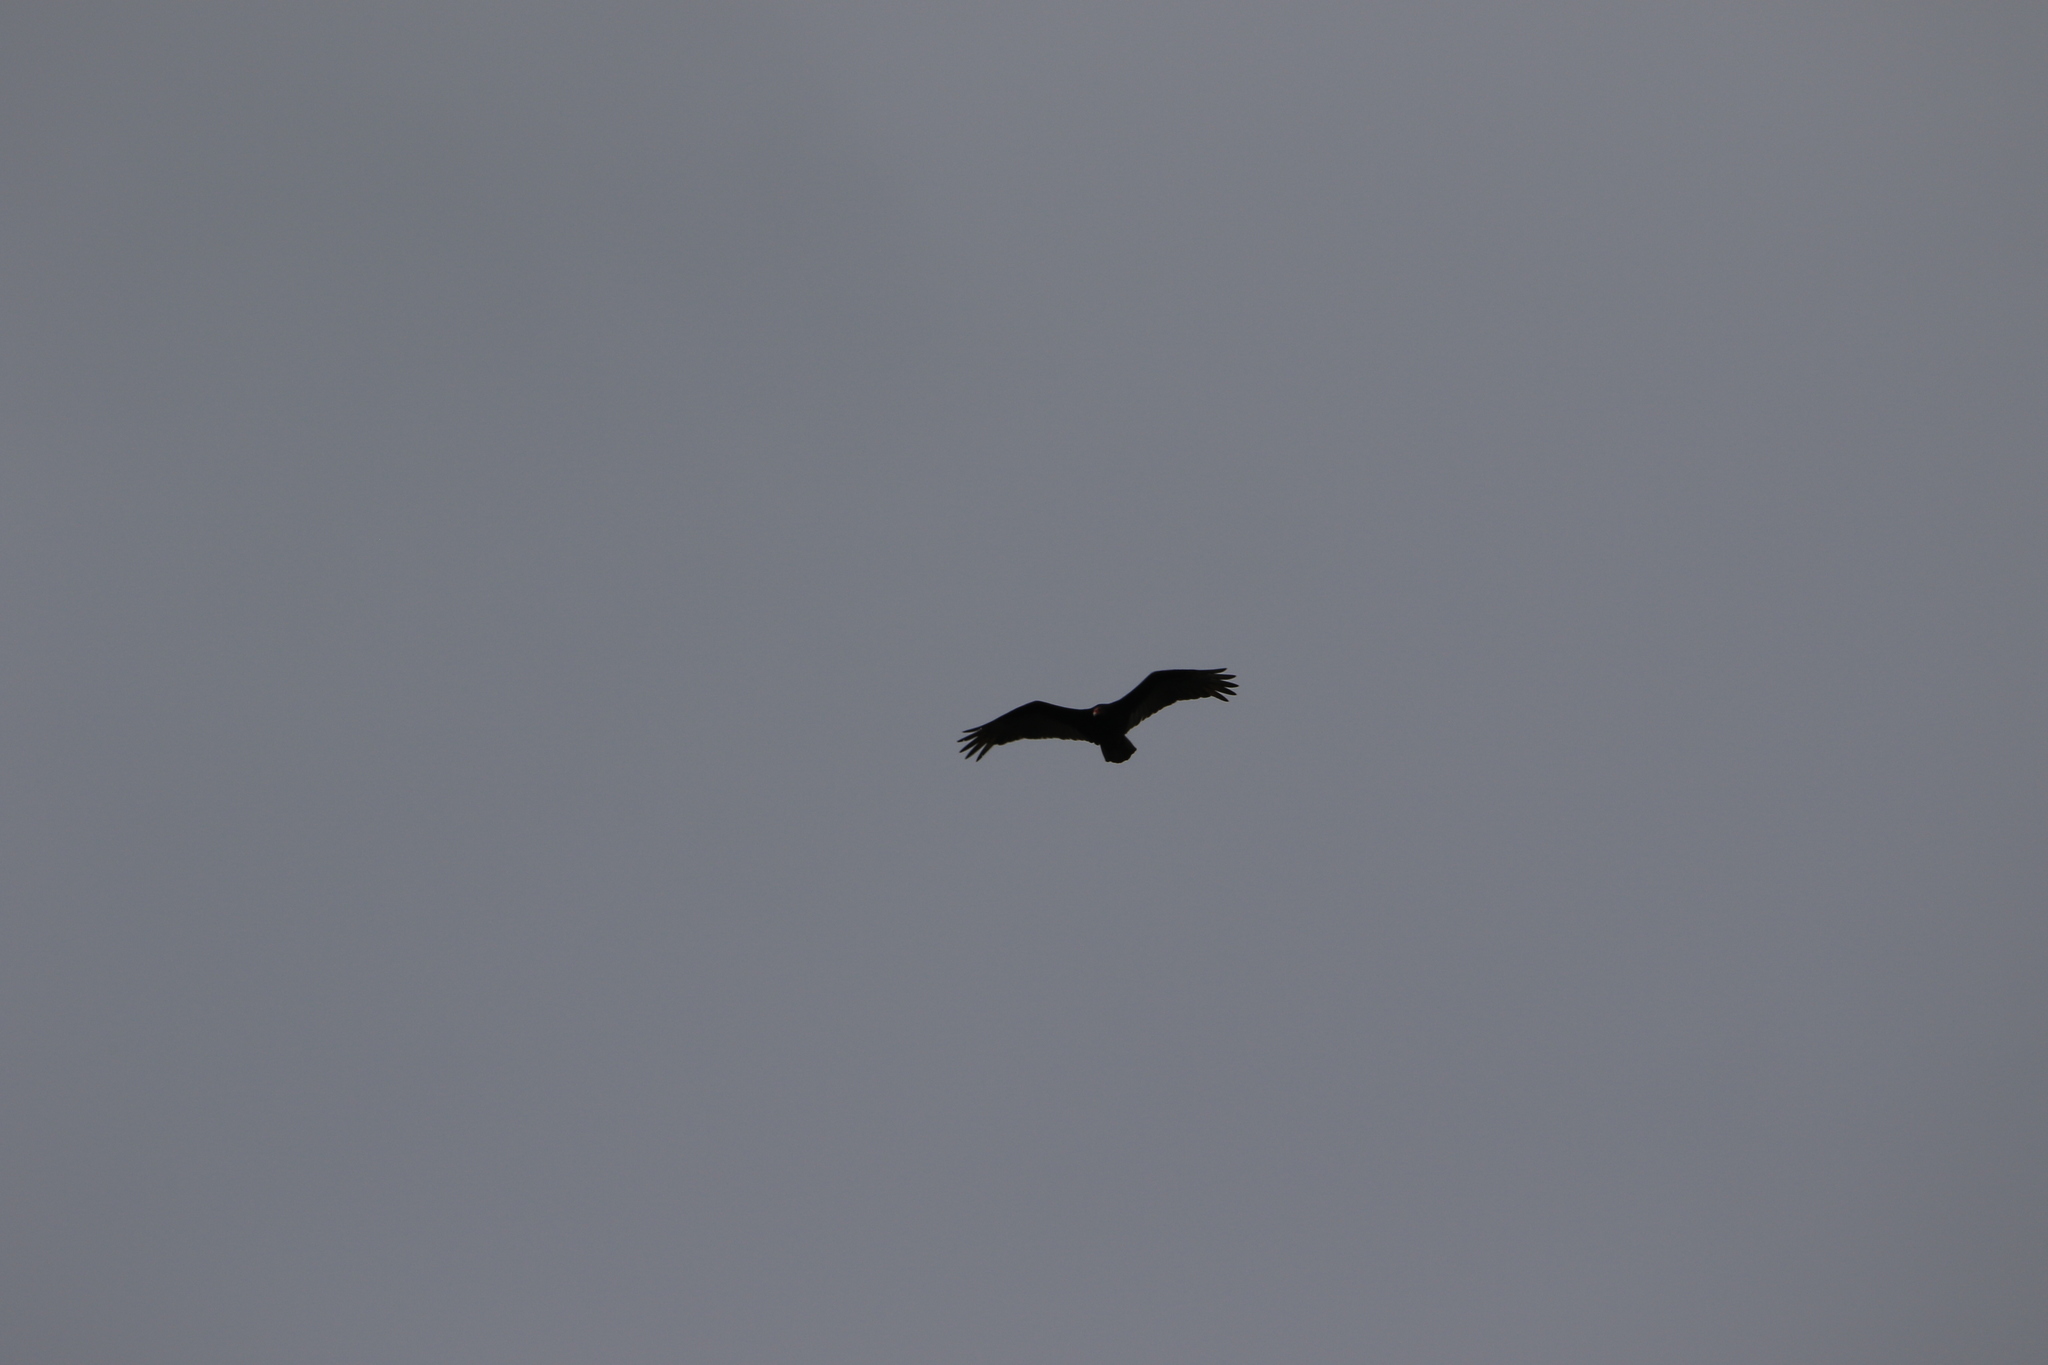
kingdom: Animalia
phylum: Chordata
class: Aves
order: Accipitriformes
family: Cathartidae
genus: Cathartes
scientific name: Cathartes aura
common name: Turkey vulture
